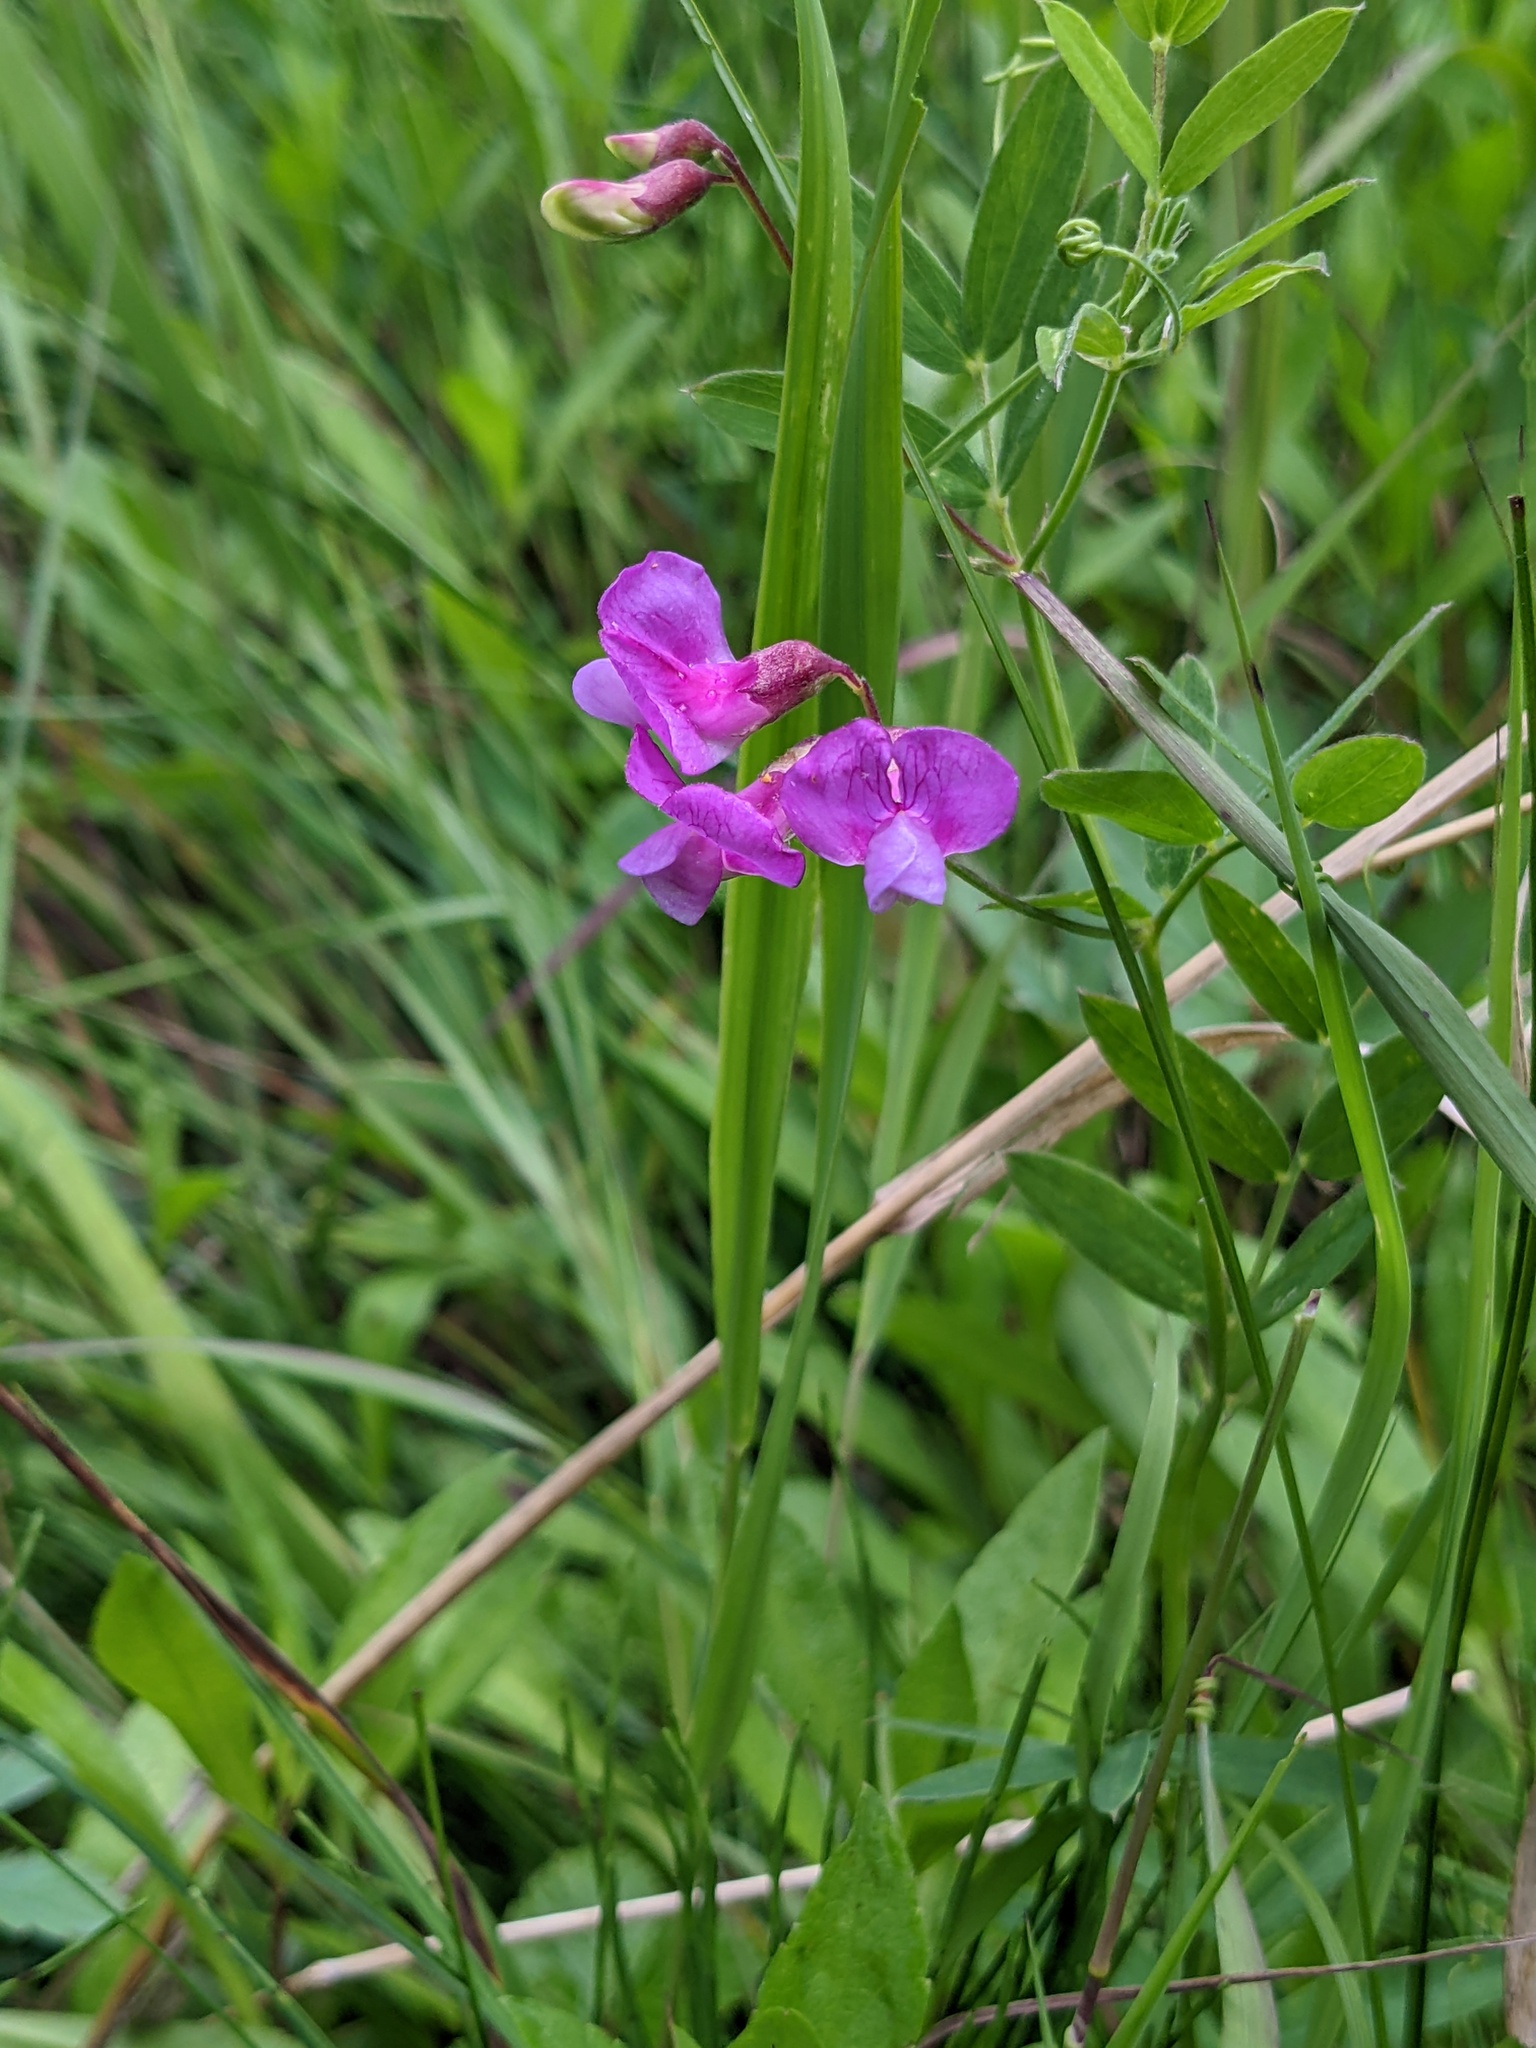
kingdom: Plantae
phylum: Tracheophyta
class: Magnoliopsida
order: Fabales
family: Fabaceae
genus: Lathyrus
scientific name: Lathyrus palustris
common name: Marsh pea
